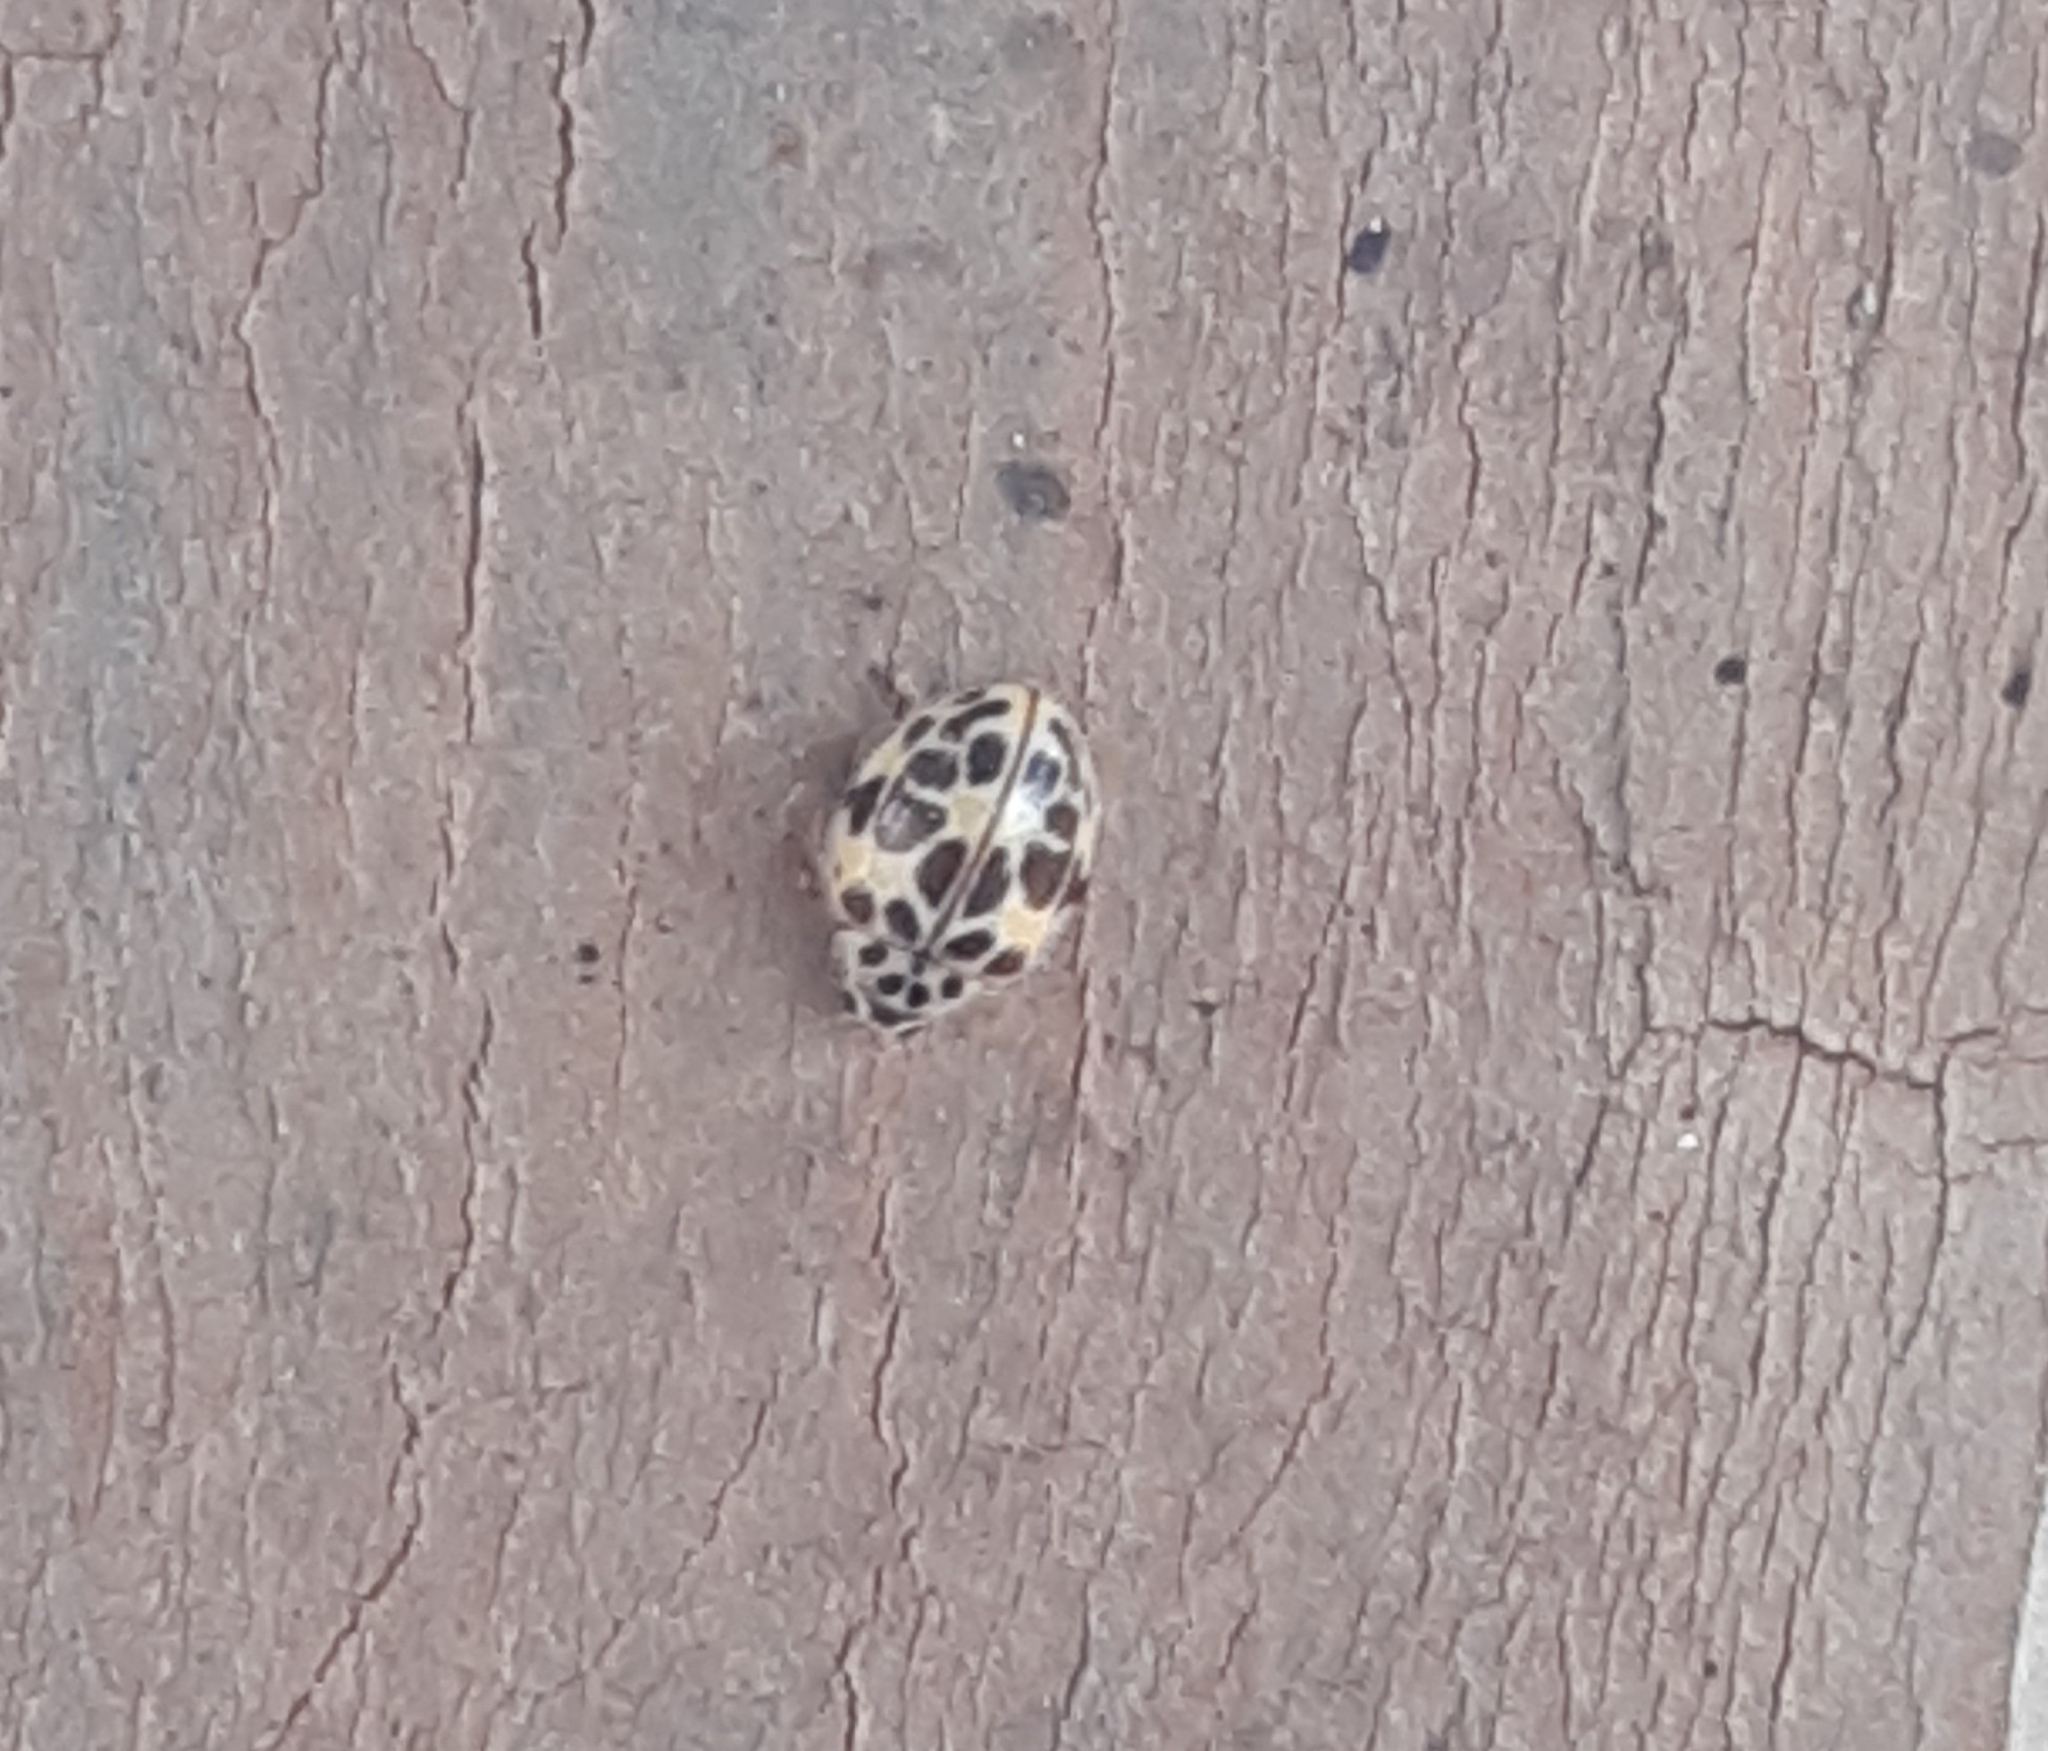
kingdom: Animalia
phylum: Arthropoda
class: Insecta
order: Coleoptera
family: Coccinellidae
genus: Psyllobora
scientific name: Psyllobora
